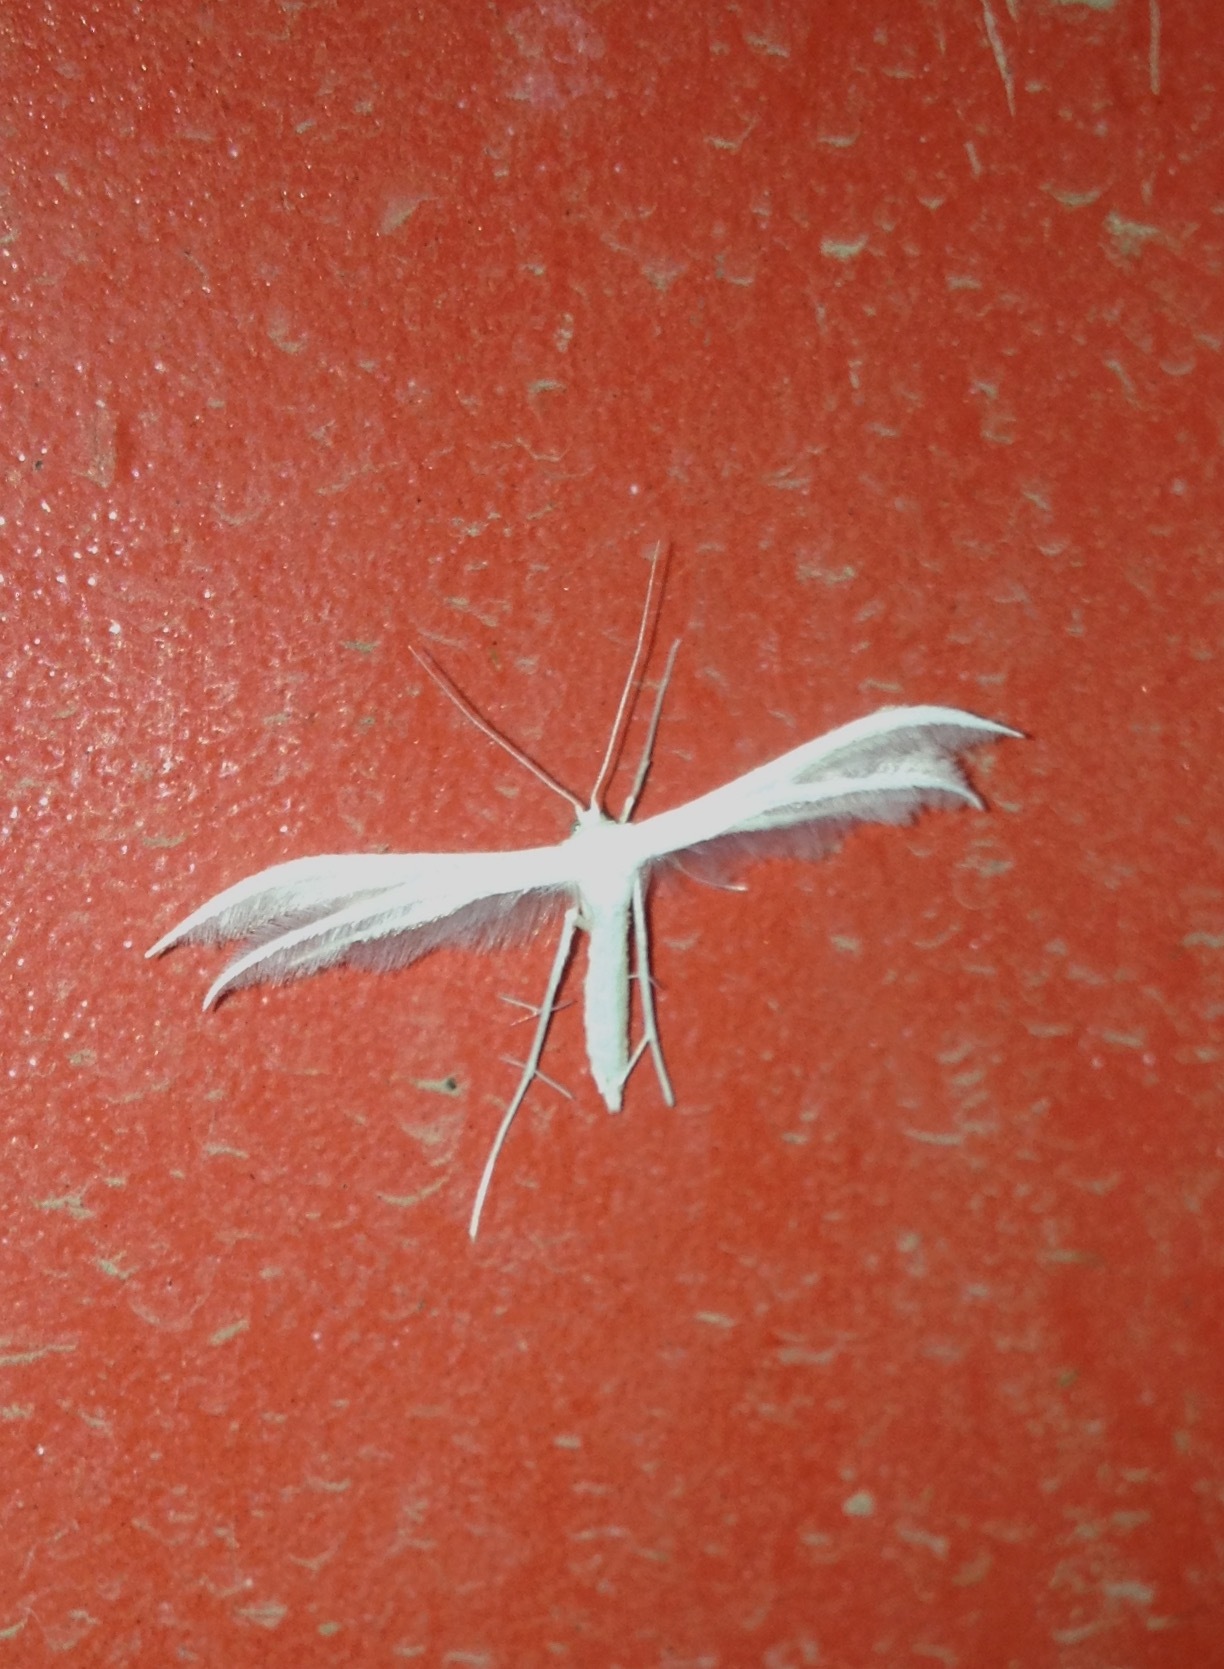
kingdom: Animalia
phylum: Arthropoda
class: Insecta
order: Lepidoptera
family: Pterophoridae
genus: Pterophorus
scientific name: Pterophorus pentadactyla
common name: White plume moth
